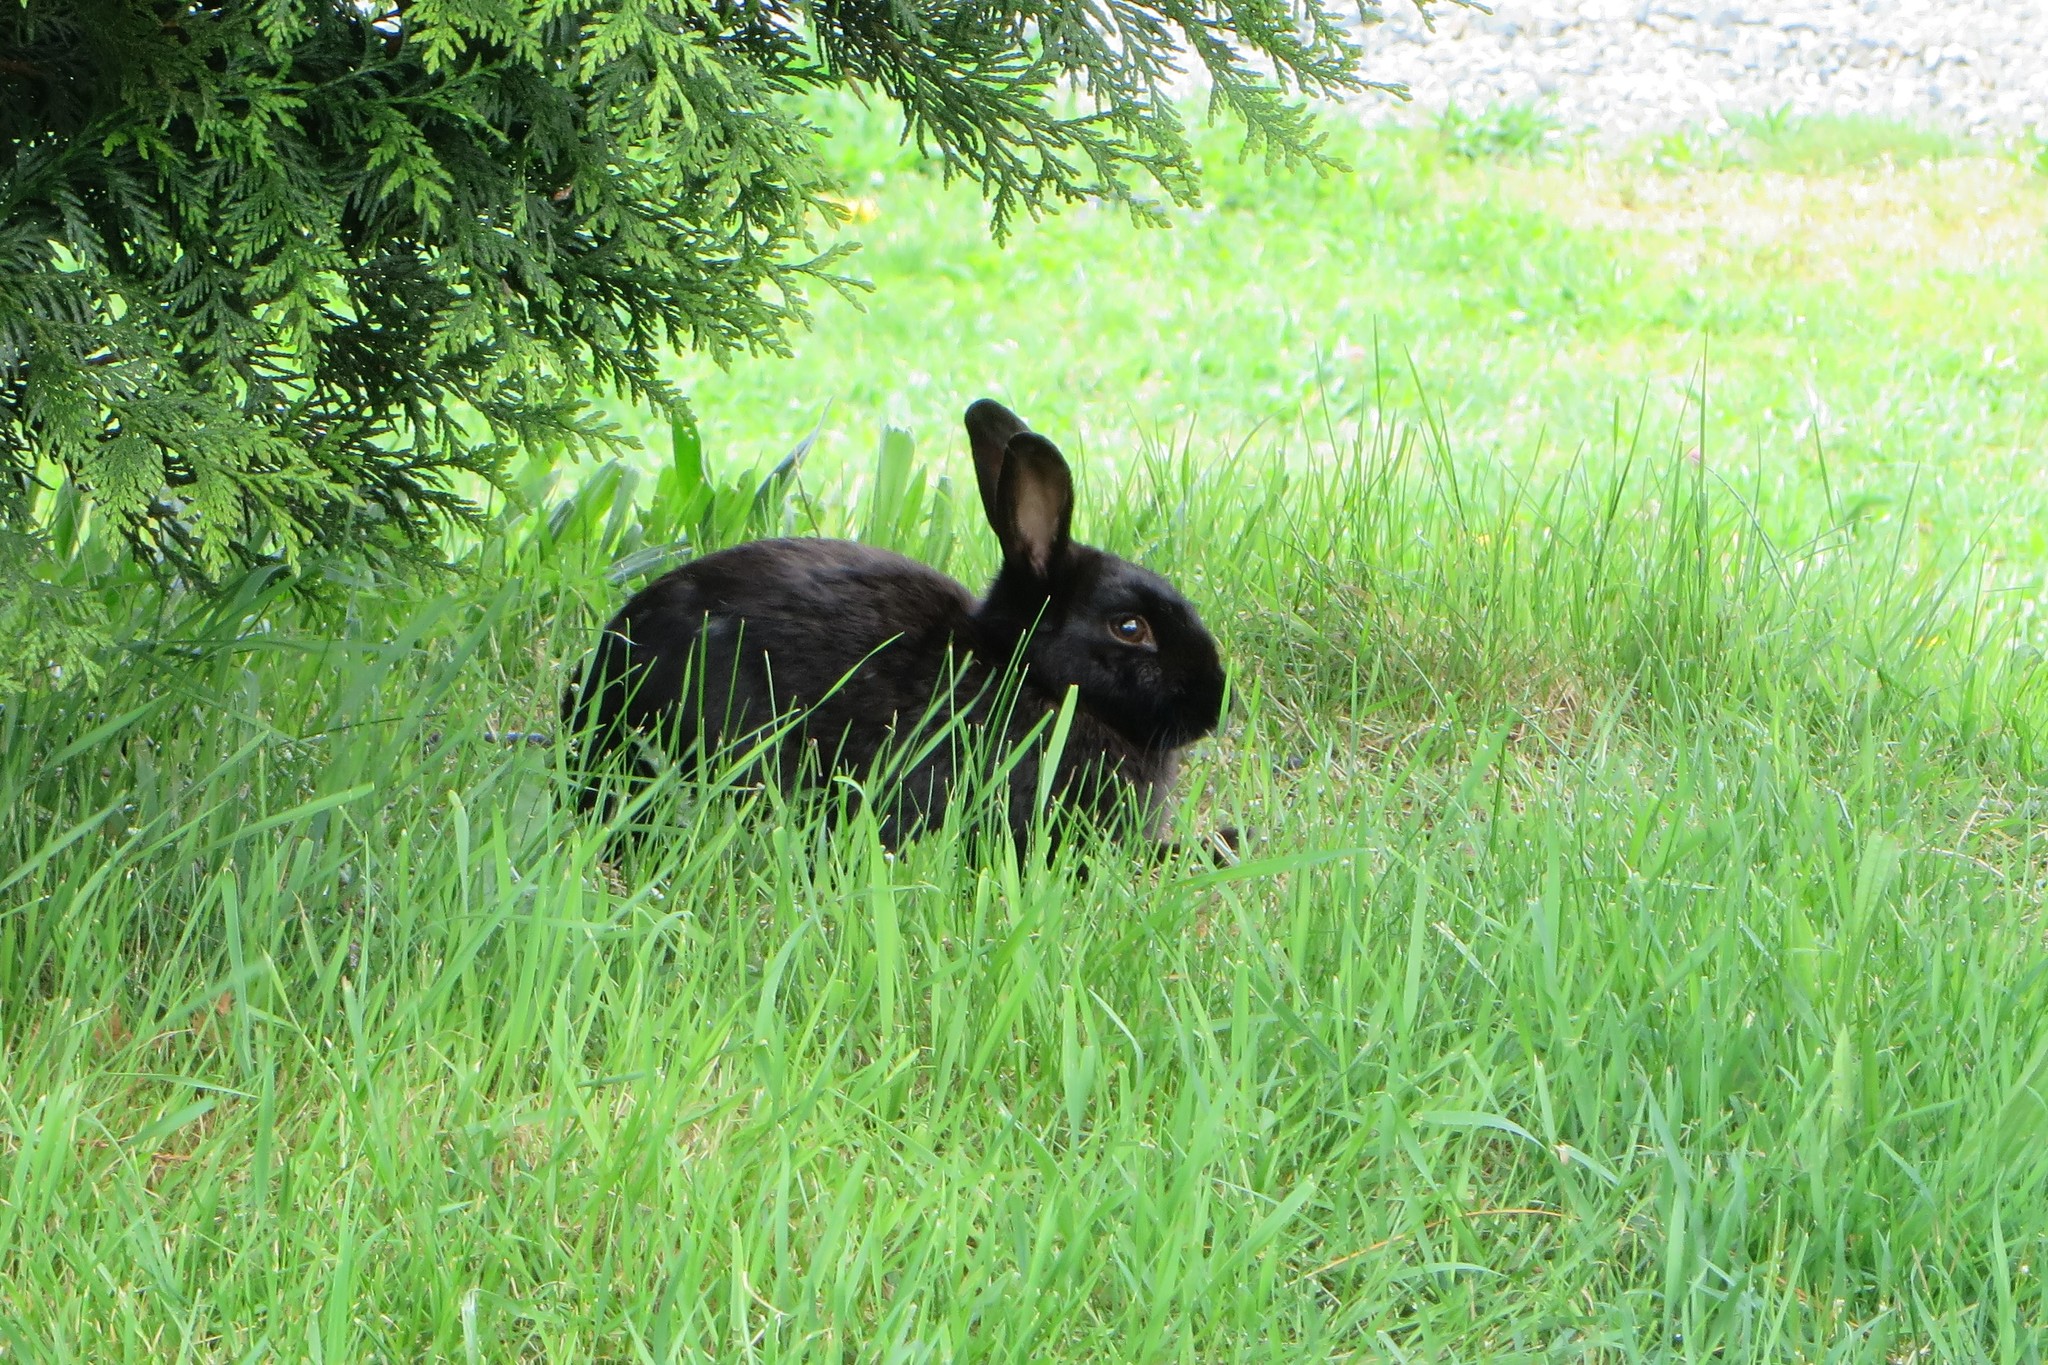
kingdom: Animalia
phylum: Chordata
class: Mammalia
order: Lagomorpha
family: Leporidae
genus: Oryctolagus
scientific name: Oryctolagus cuniculus
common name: European rabbit
